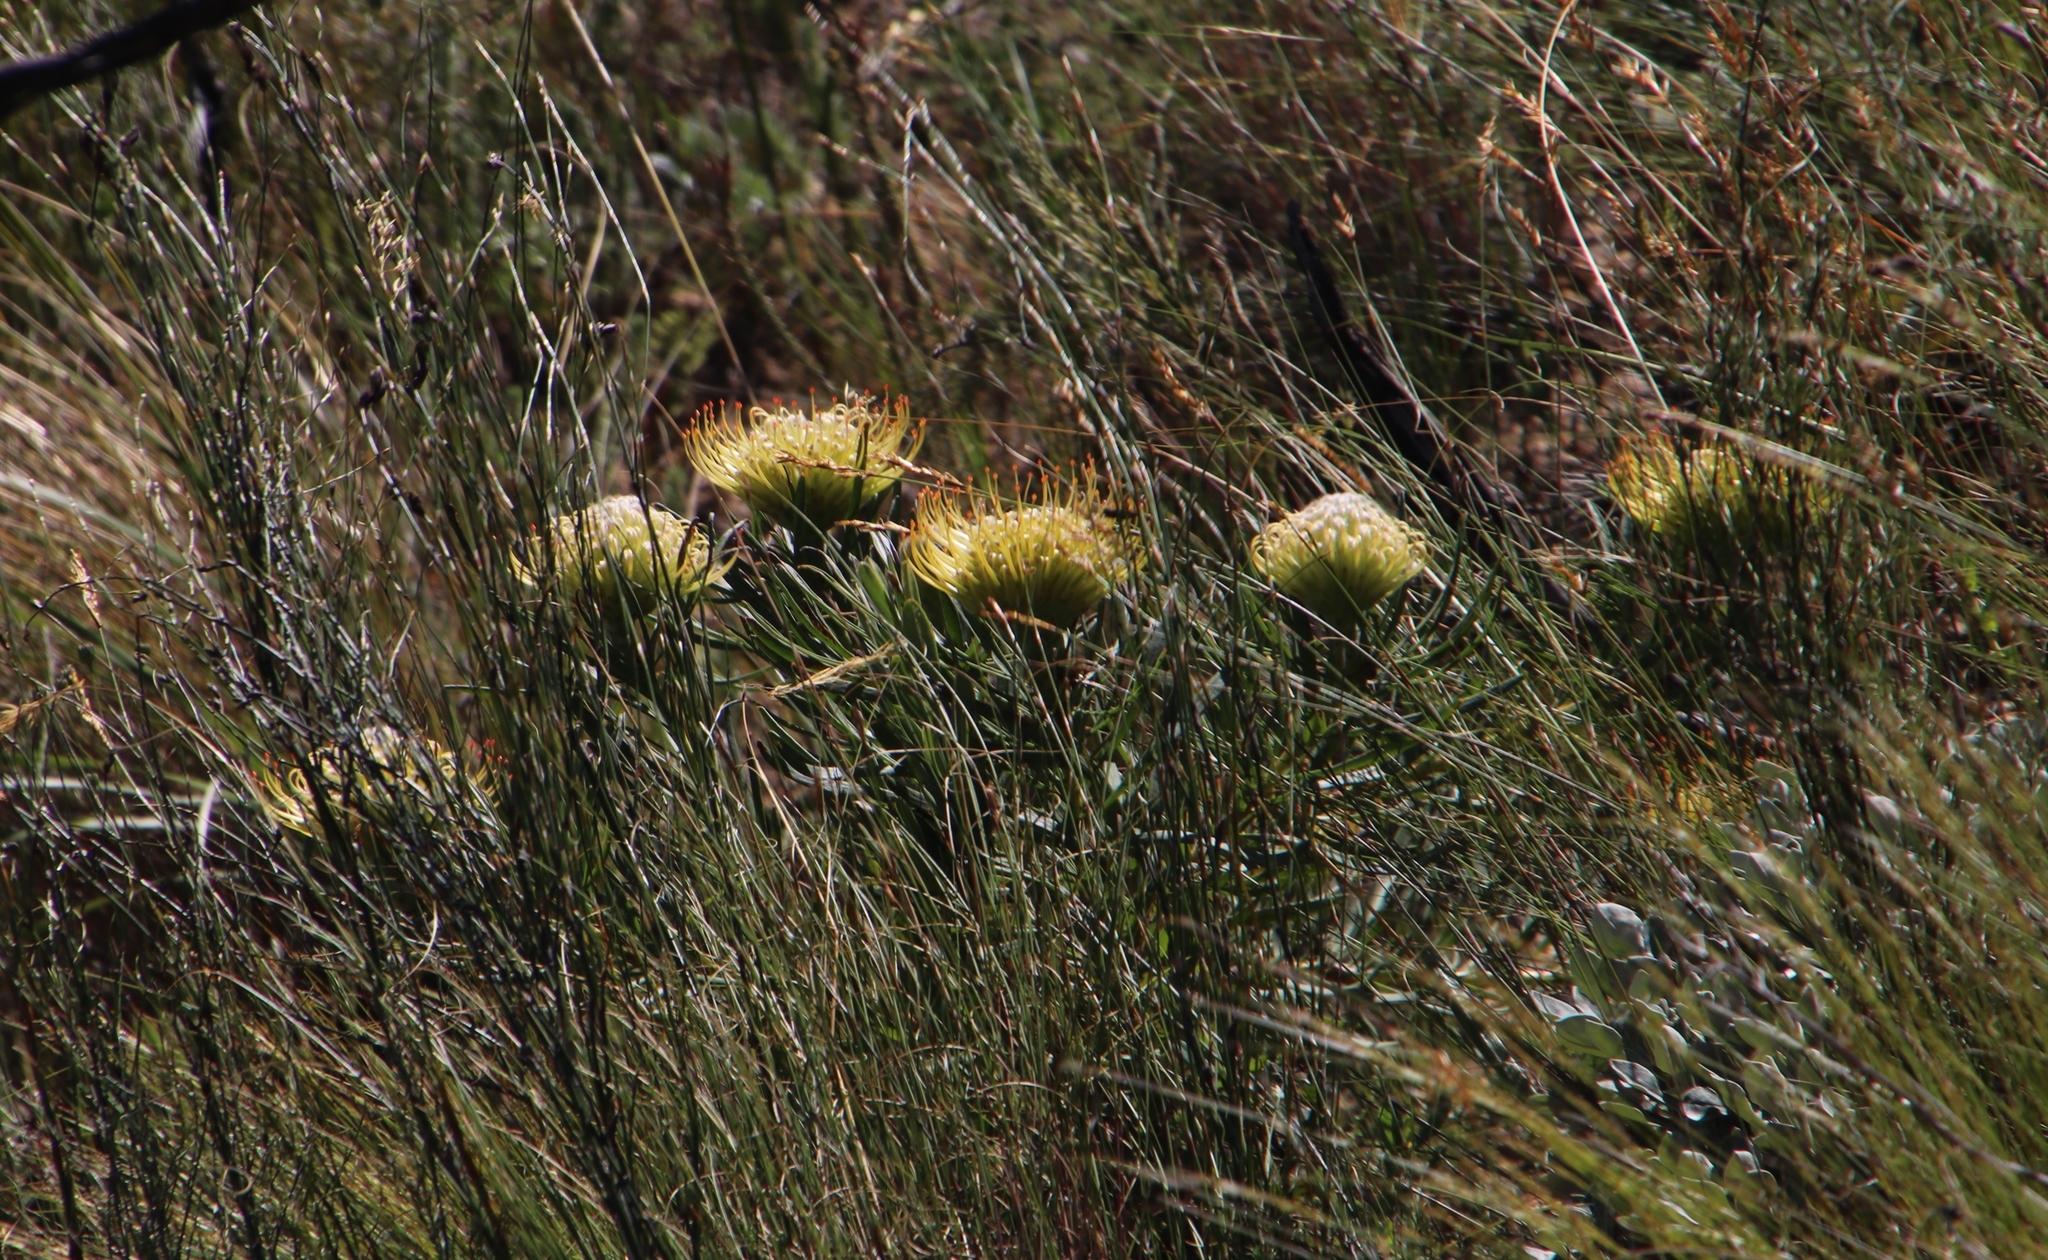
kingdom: Plantae
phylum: Tracheophyta
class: Magnoliopsida
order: Proteales
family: Proteaceae
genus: Leucospermum
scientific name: Leucospermum lineare
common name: Needle-leaf pincushion
